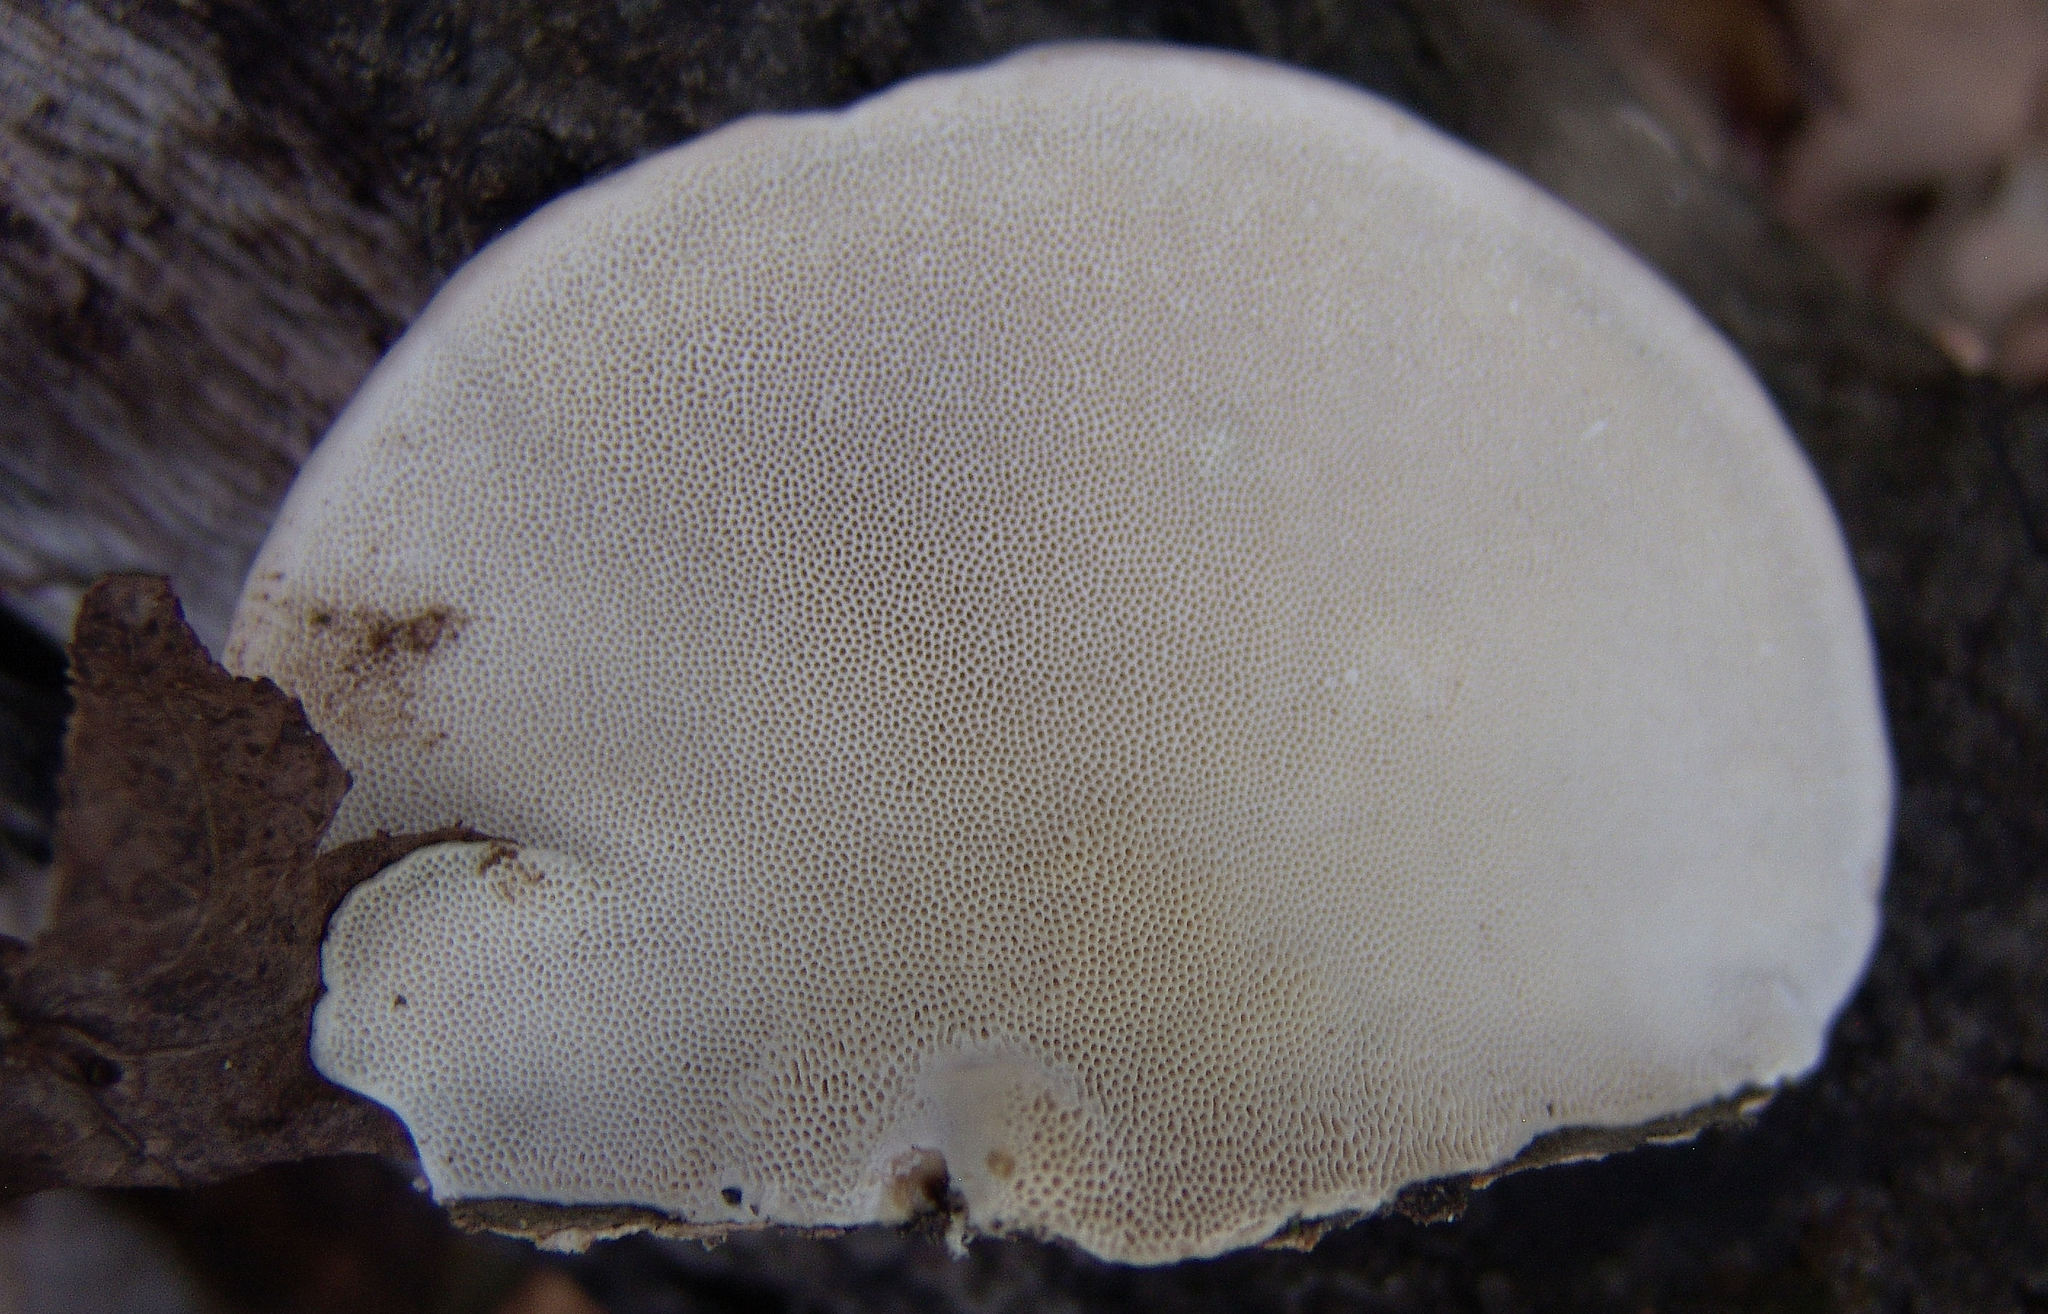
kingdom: Fungi
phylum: Basidiomycota
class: Agaricomycetes
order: Polyporales
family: Polyporaceae
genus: Trametes
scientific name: Trametes lactinea
